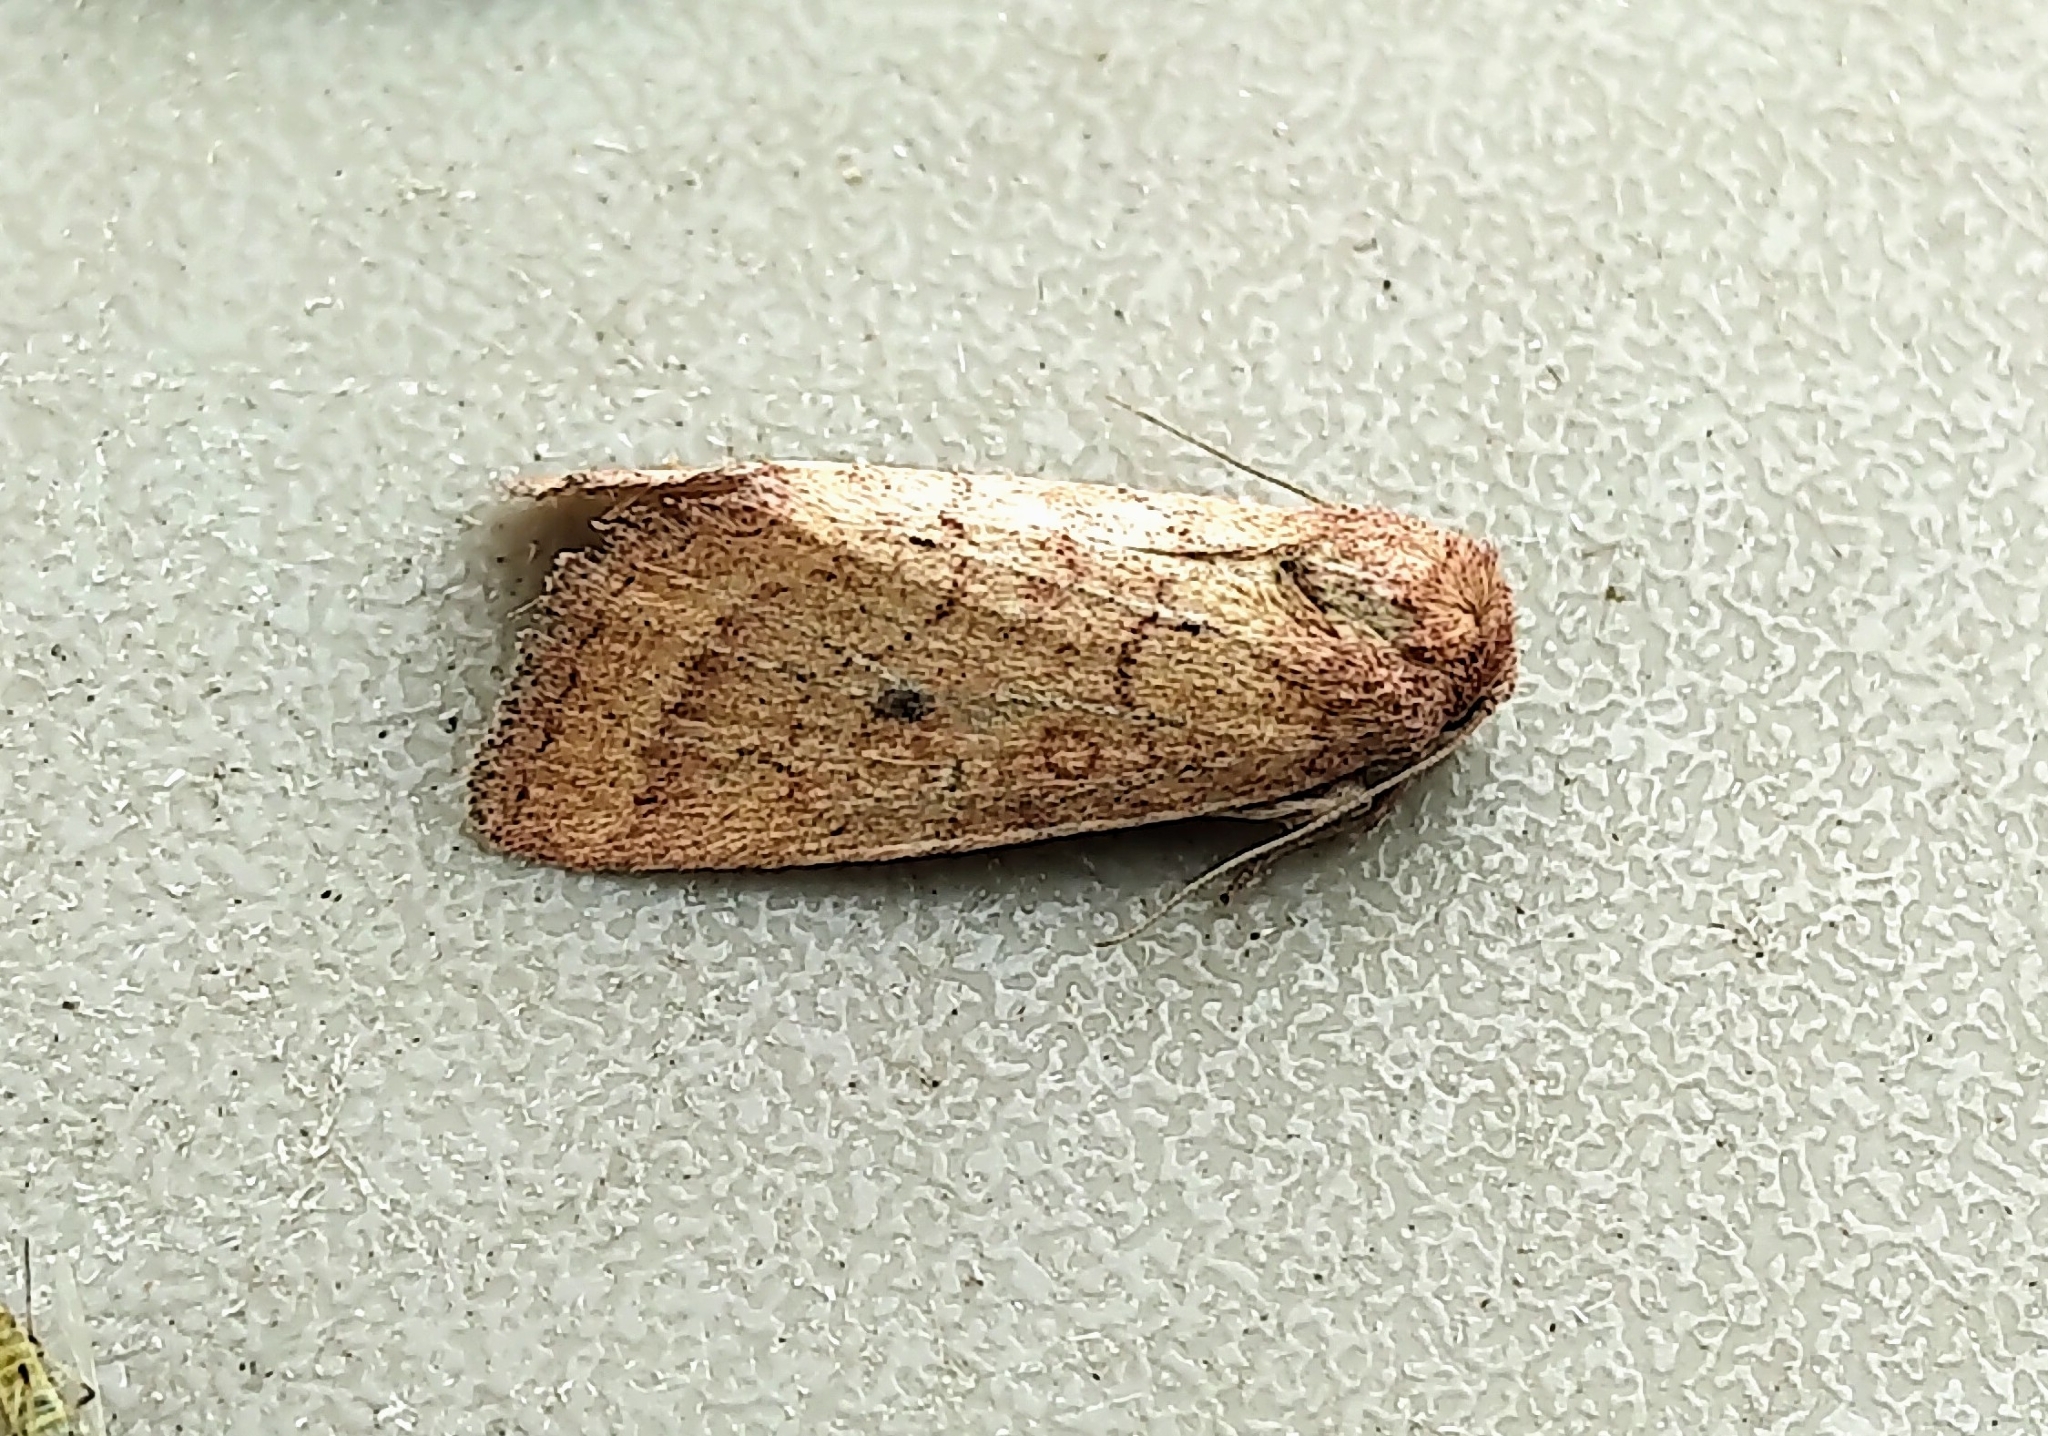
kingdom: Animalia
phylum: Arthropoda
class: Insecta
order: Lepidoptera
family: Noctuidae
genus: Photedes
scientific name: Photedes inops
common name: Spartina borer moth
